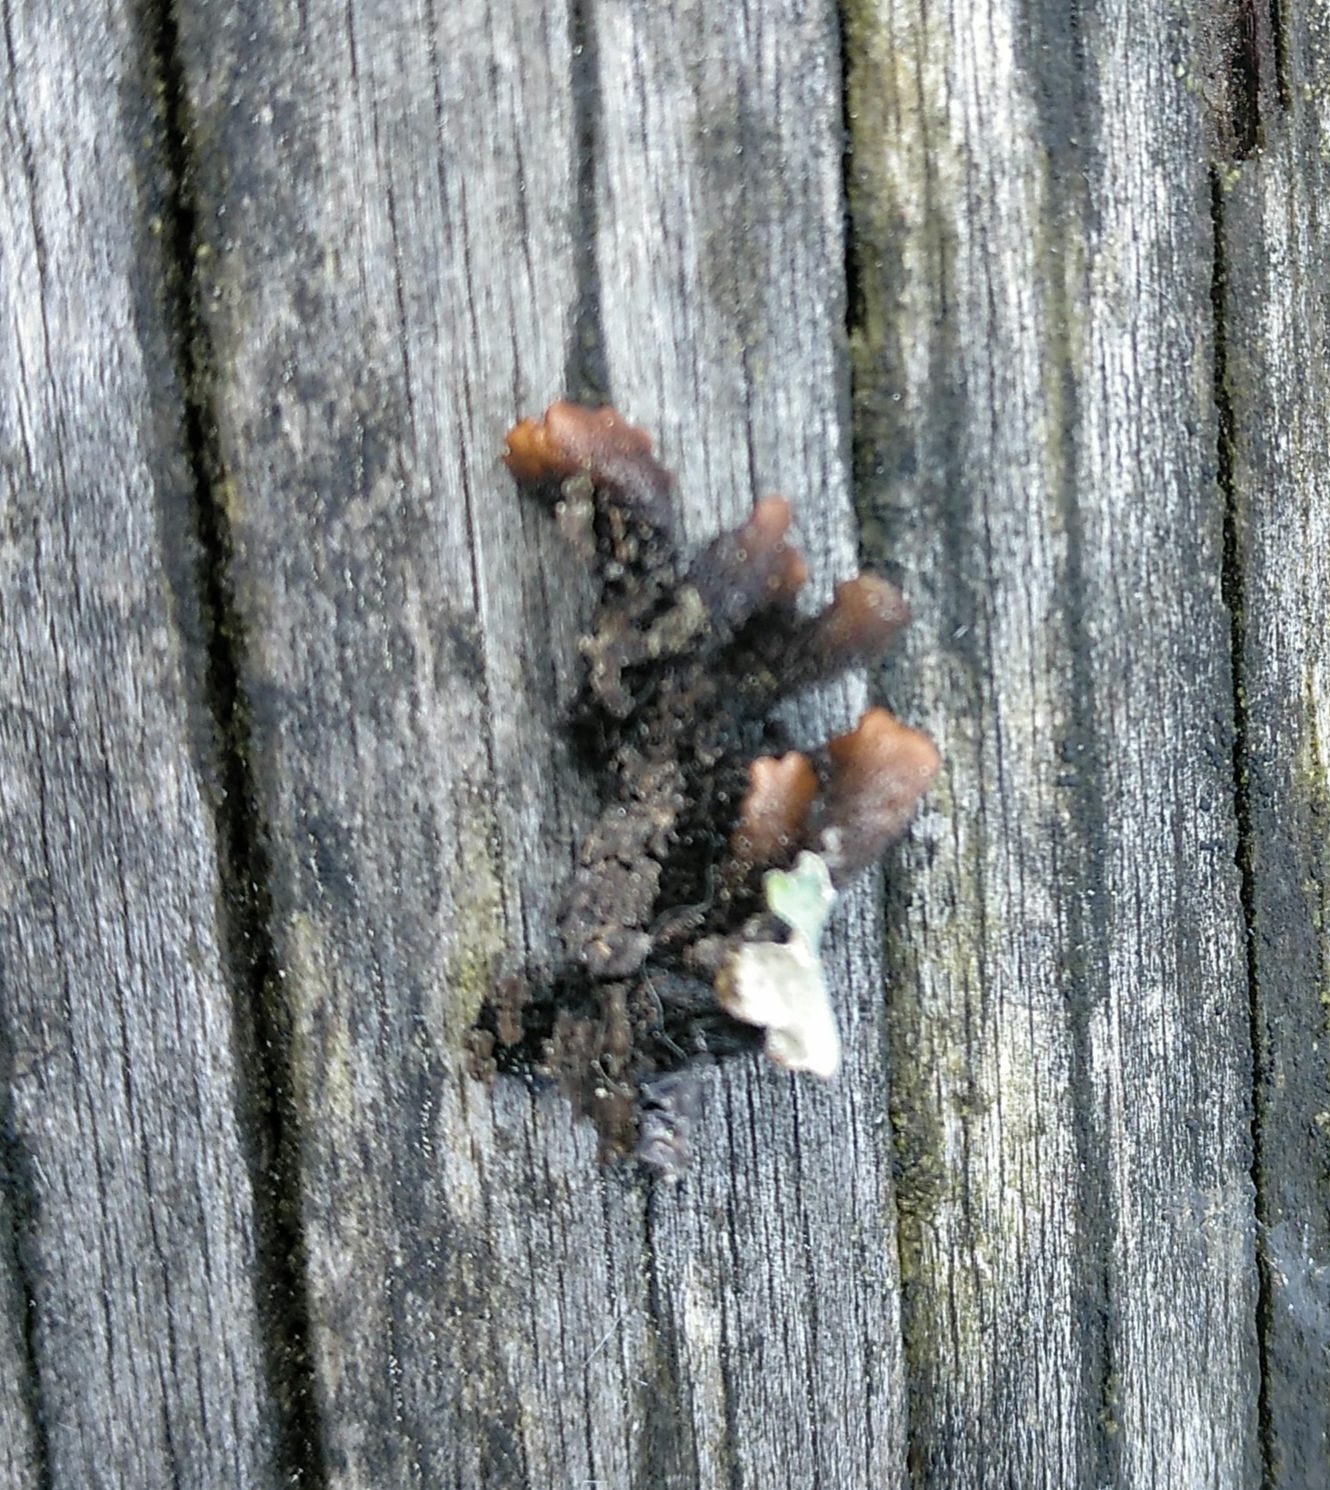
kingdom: Fungi
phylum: Ascomycota
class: Lecanoromycetes
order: Lecanorales
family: Parmeliaceae
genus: Parmelia
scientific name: Parmelia sulcata
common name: Netted shield lichen
